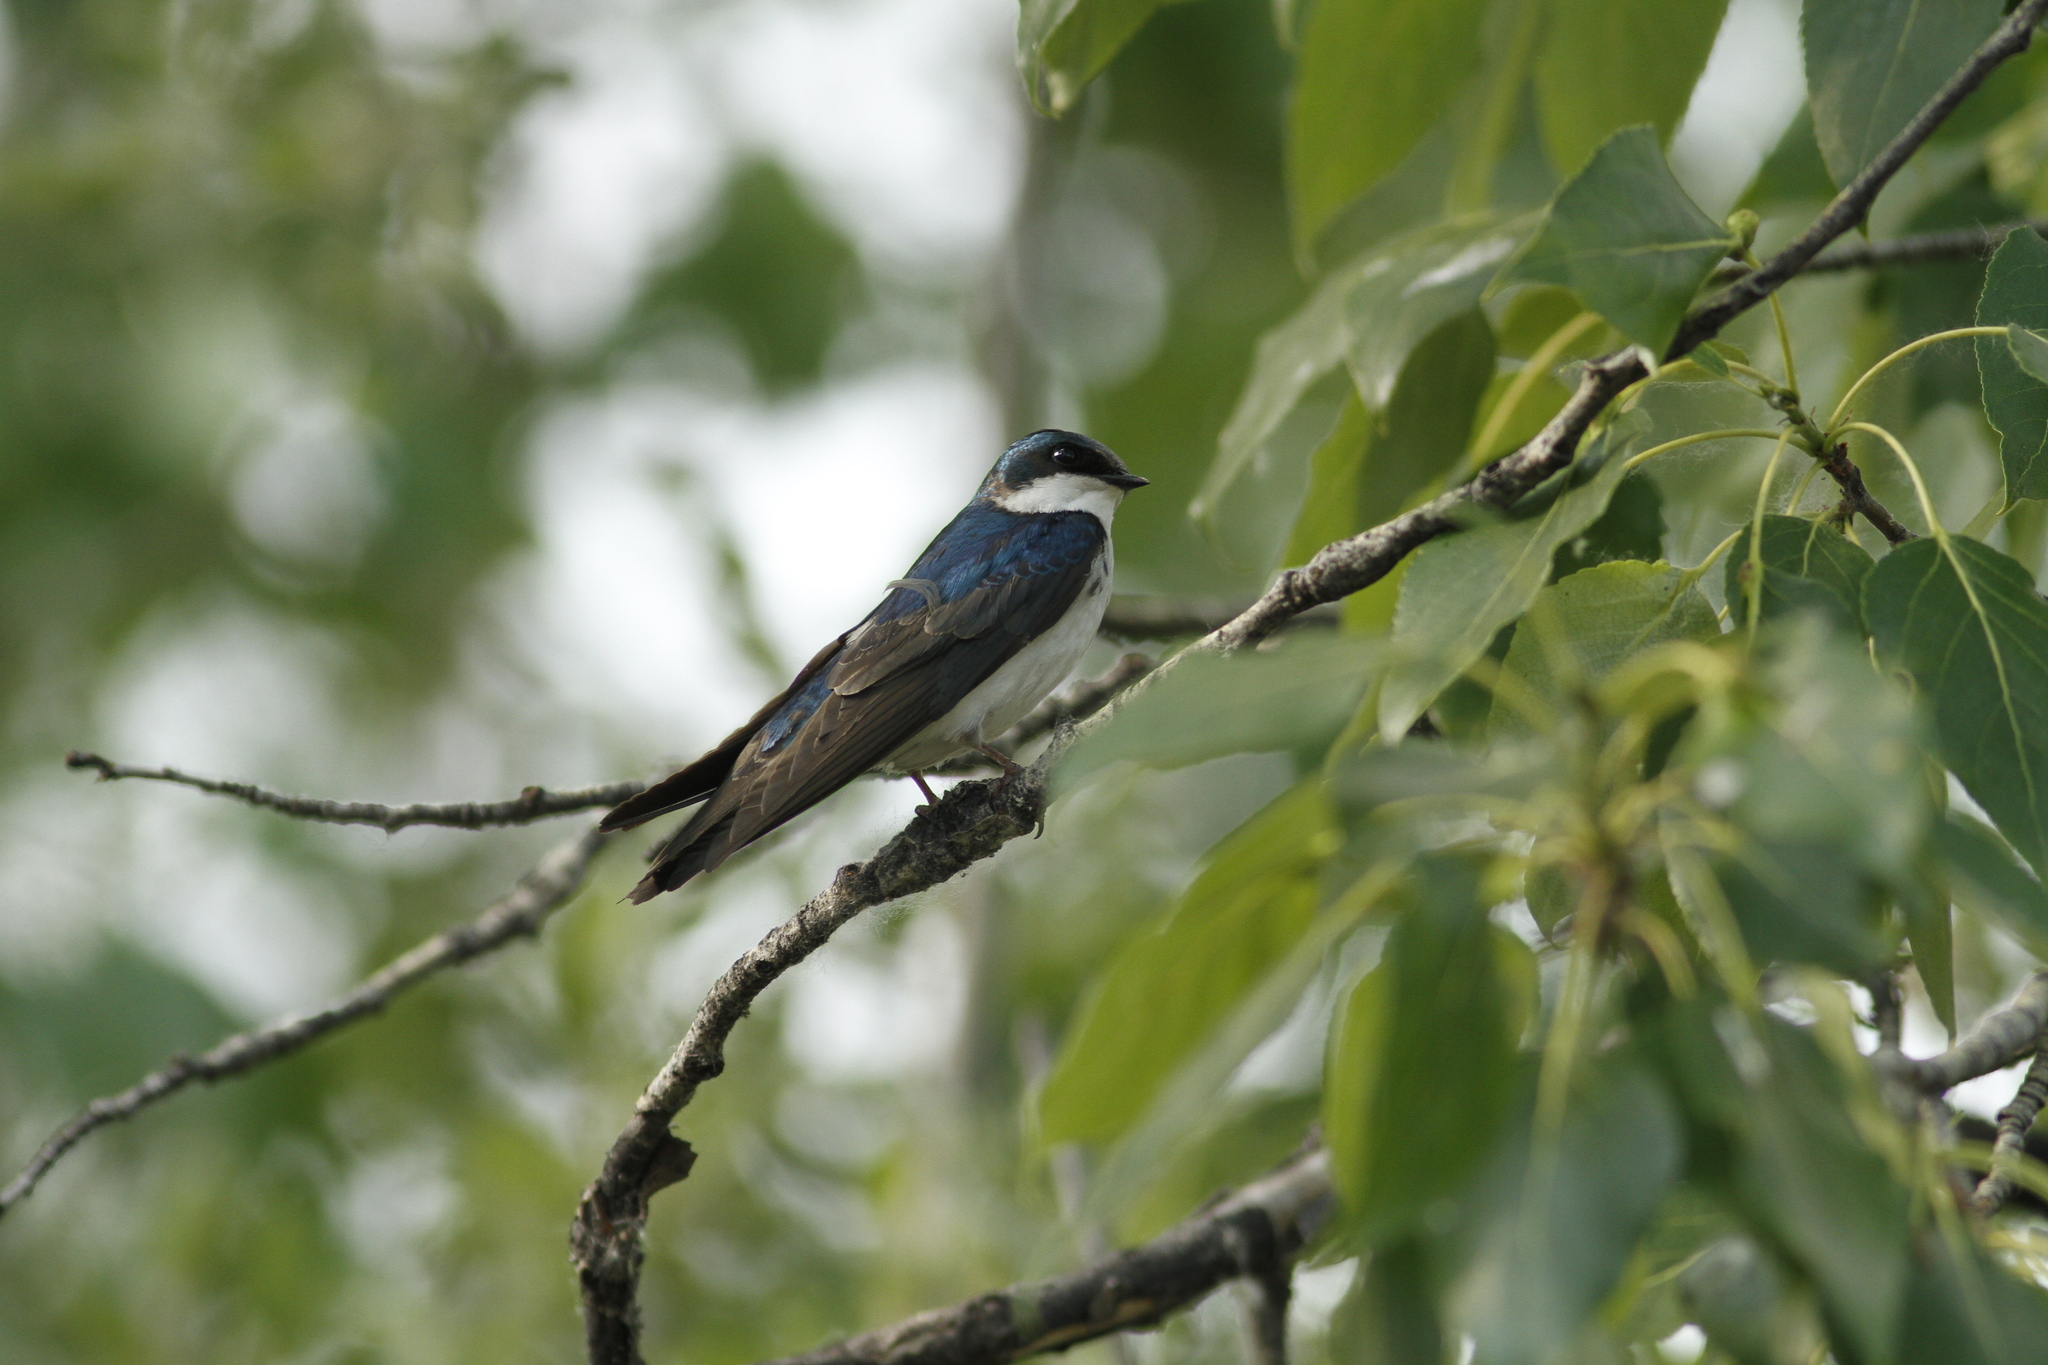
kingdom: Animalia
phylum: Chordata
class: Aves
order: Passeriformes
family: Hirundinidae
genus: Tachycineta
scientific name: Tachycineta bicolor
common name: Tree swallow
